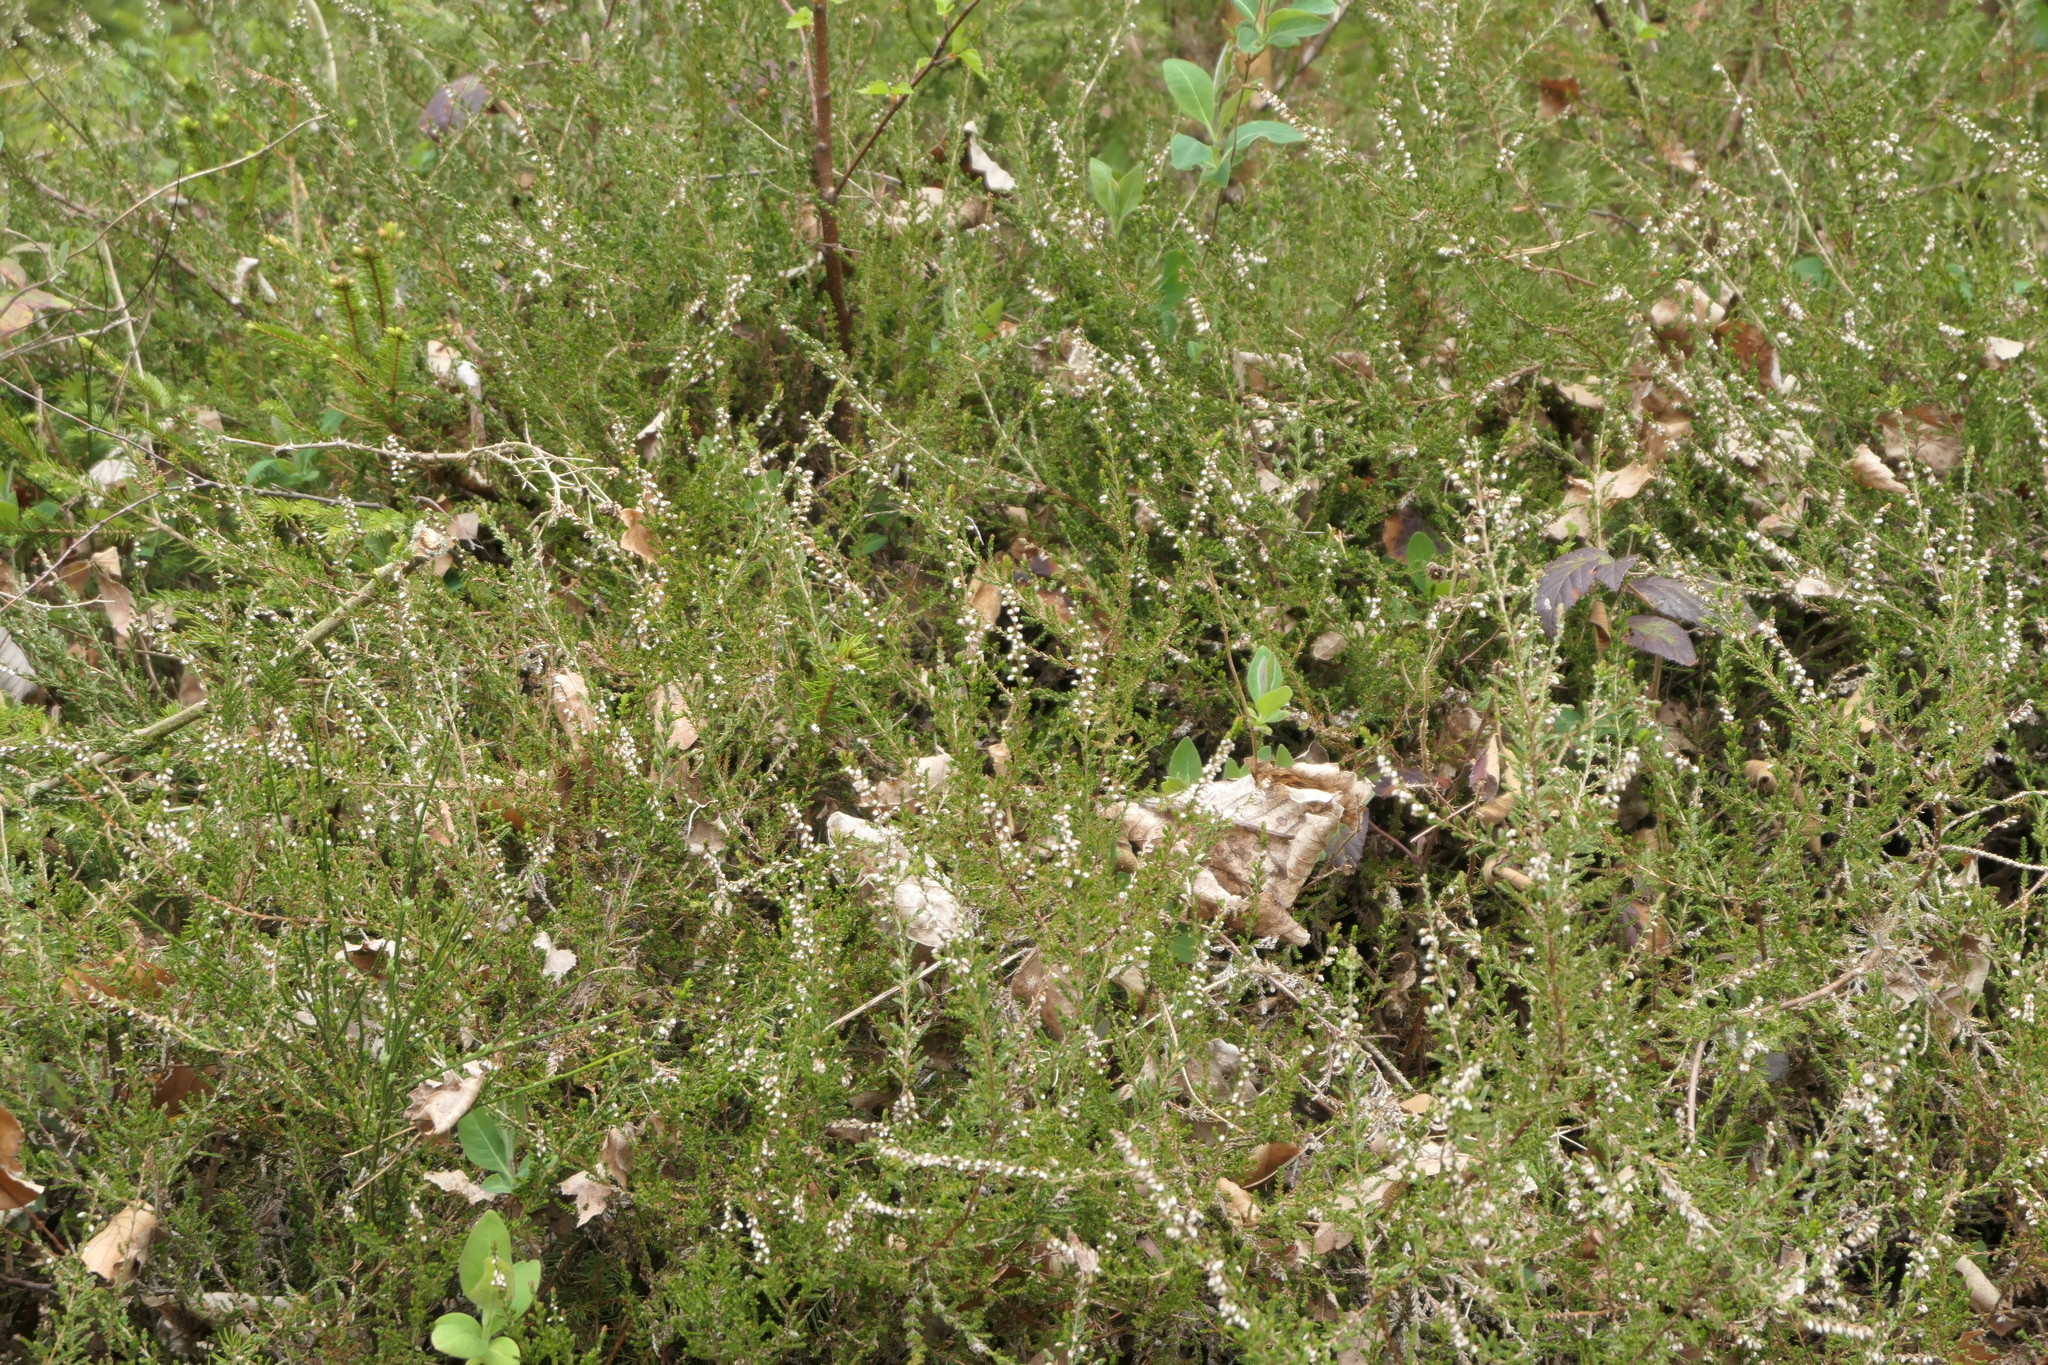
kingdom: Plantae
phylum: Tracheophyta
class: Magnoliopsida
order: Ericales
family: Ericaceae
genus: Calluna
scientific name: Calluna vulgaris
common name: Heather
